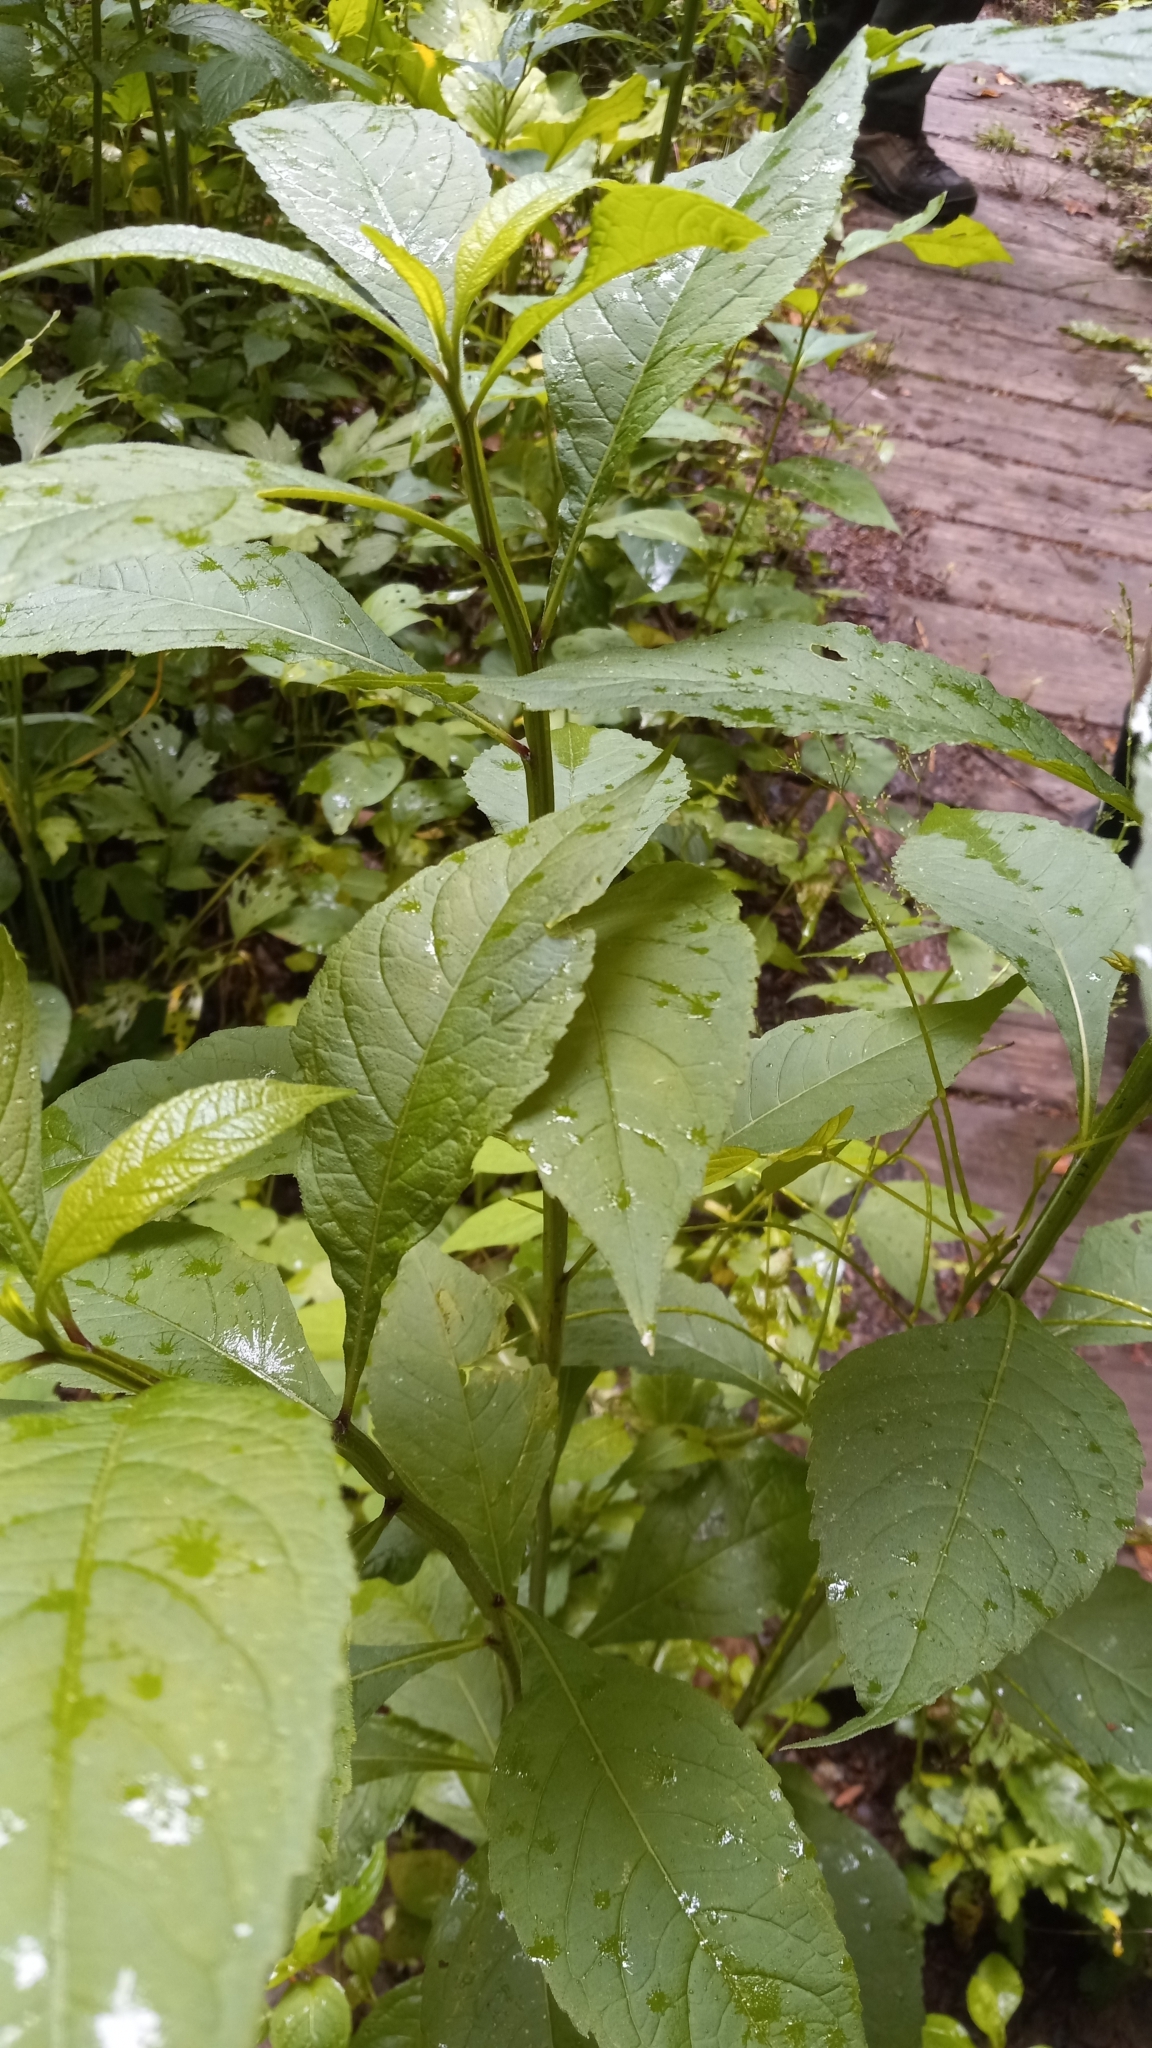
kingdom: Plantae
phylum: Tracheophyta
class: Magnoliopsida
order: Asterales
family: Asteraceae
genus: Verbesina
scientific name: Verbesina alternifolia
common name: Wingstem
